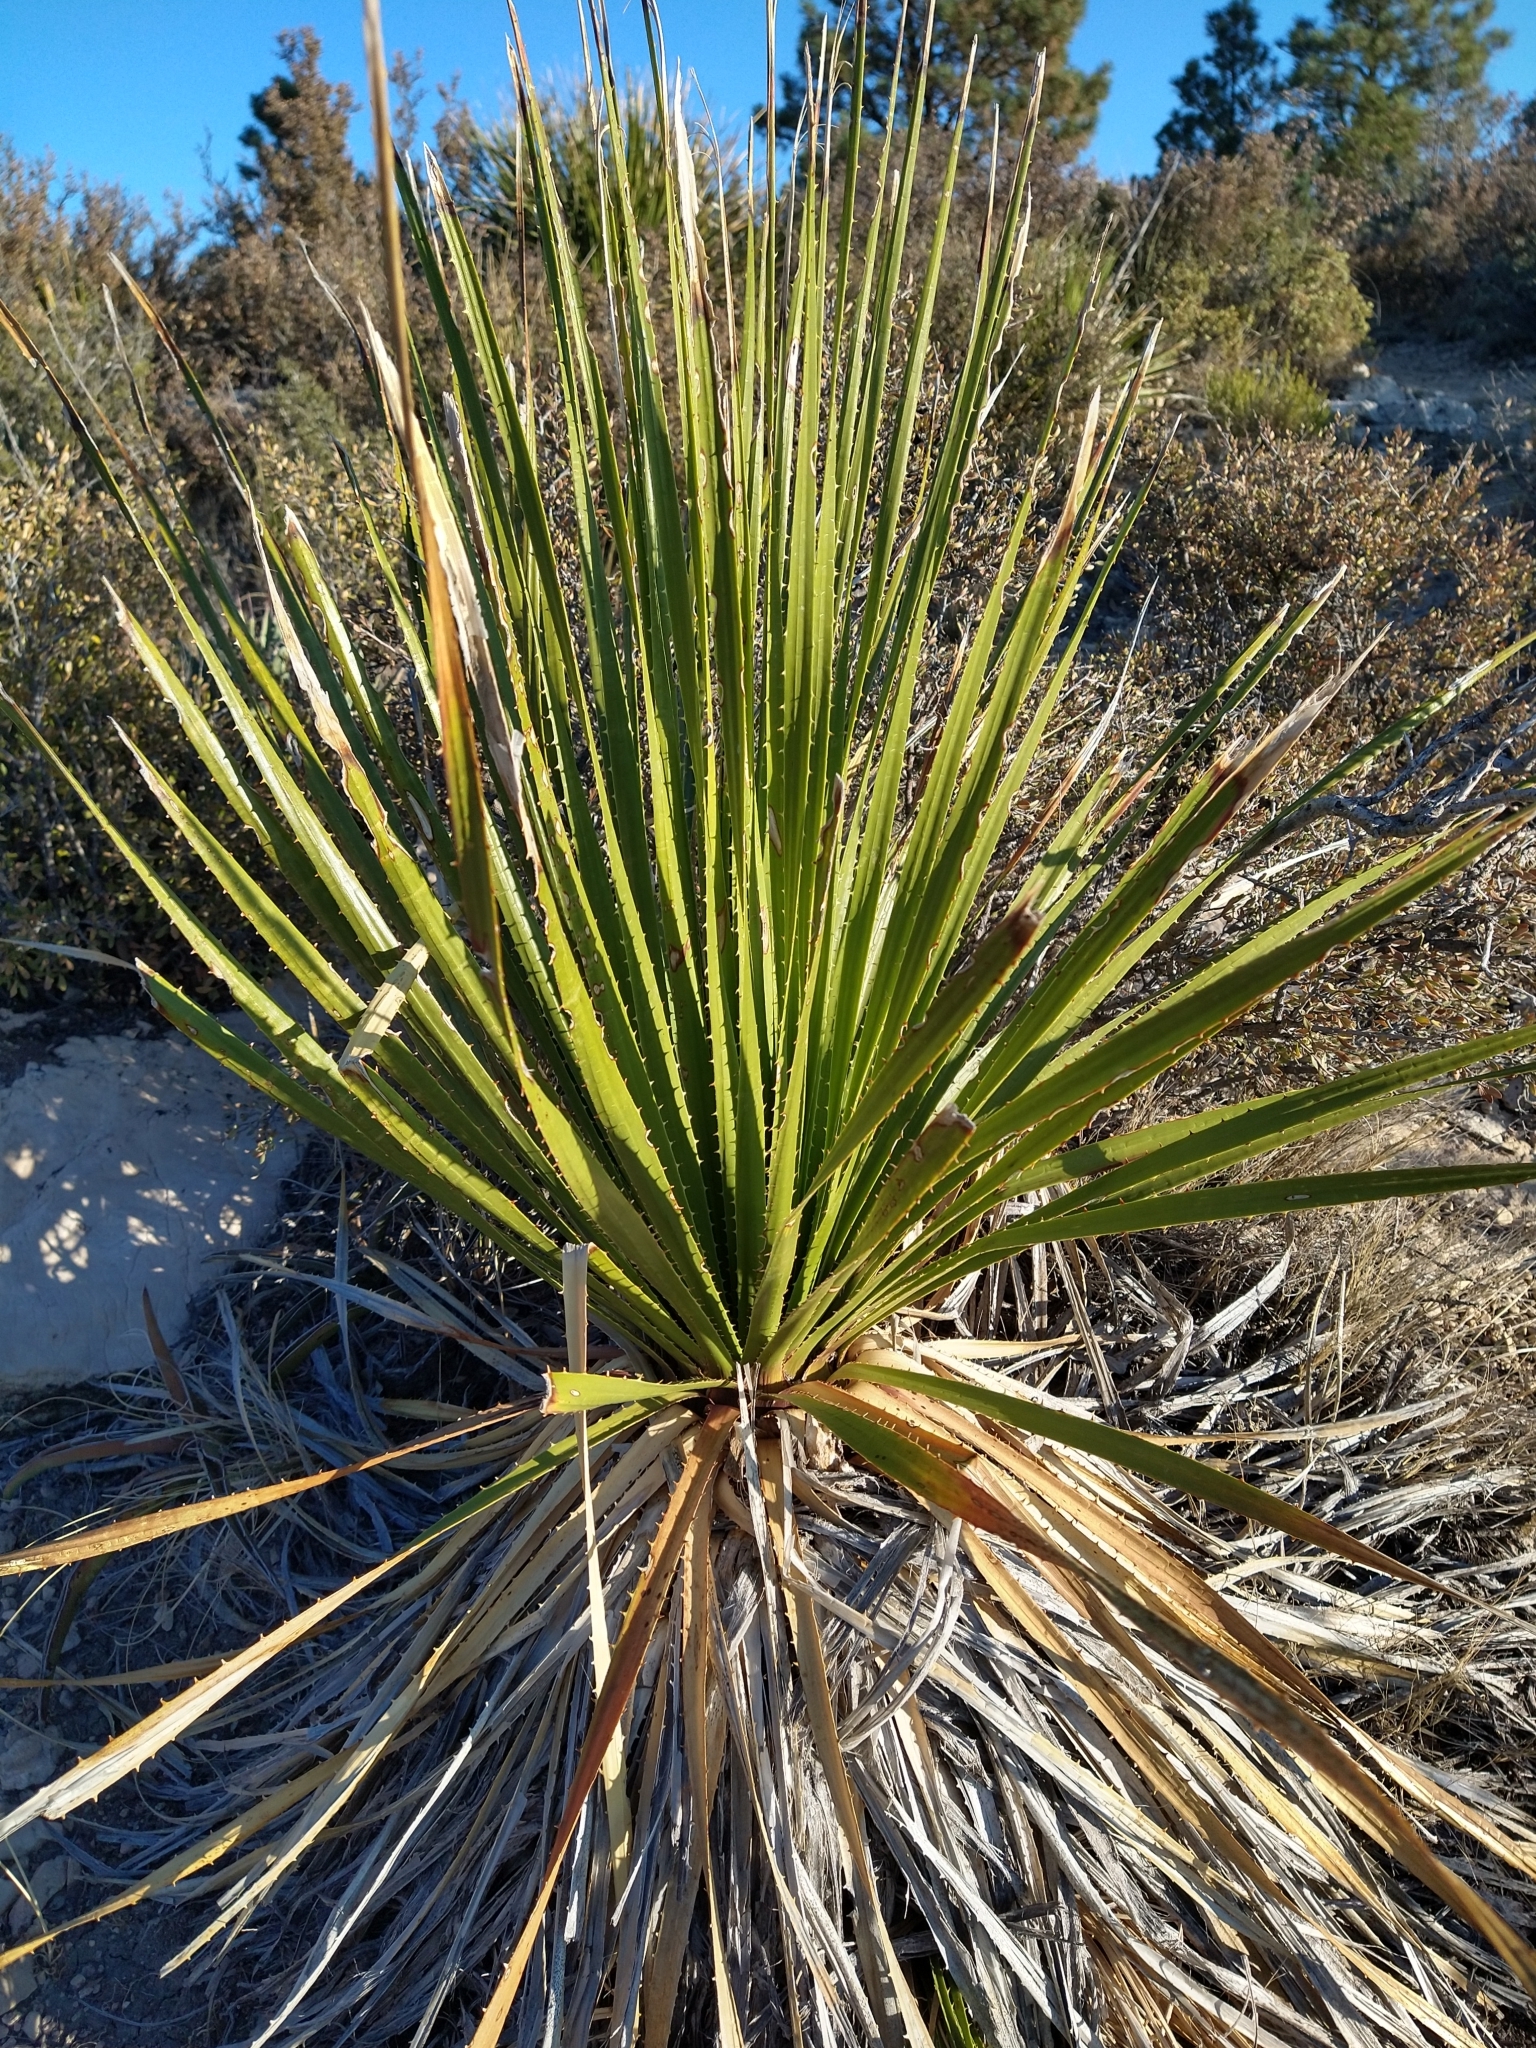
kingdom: Plantae
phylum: Tracheophyta
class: Liliopsida
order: Asparagales
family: Asparagaceae
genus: Dasylirion
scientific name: Dasylirion leiophyllum
